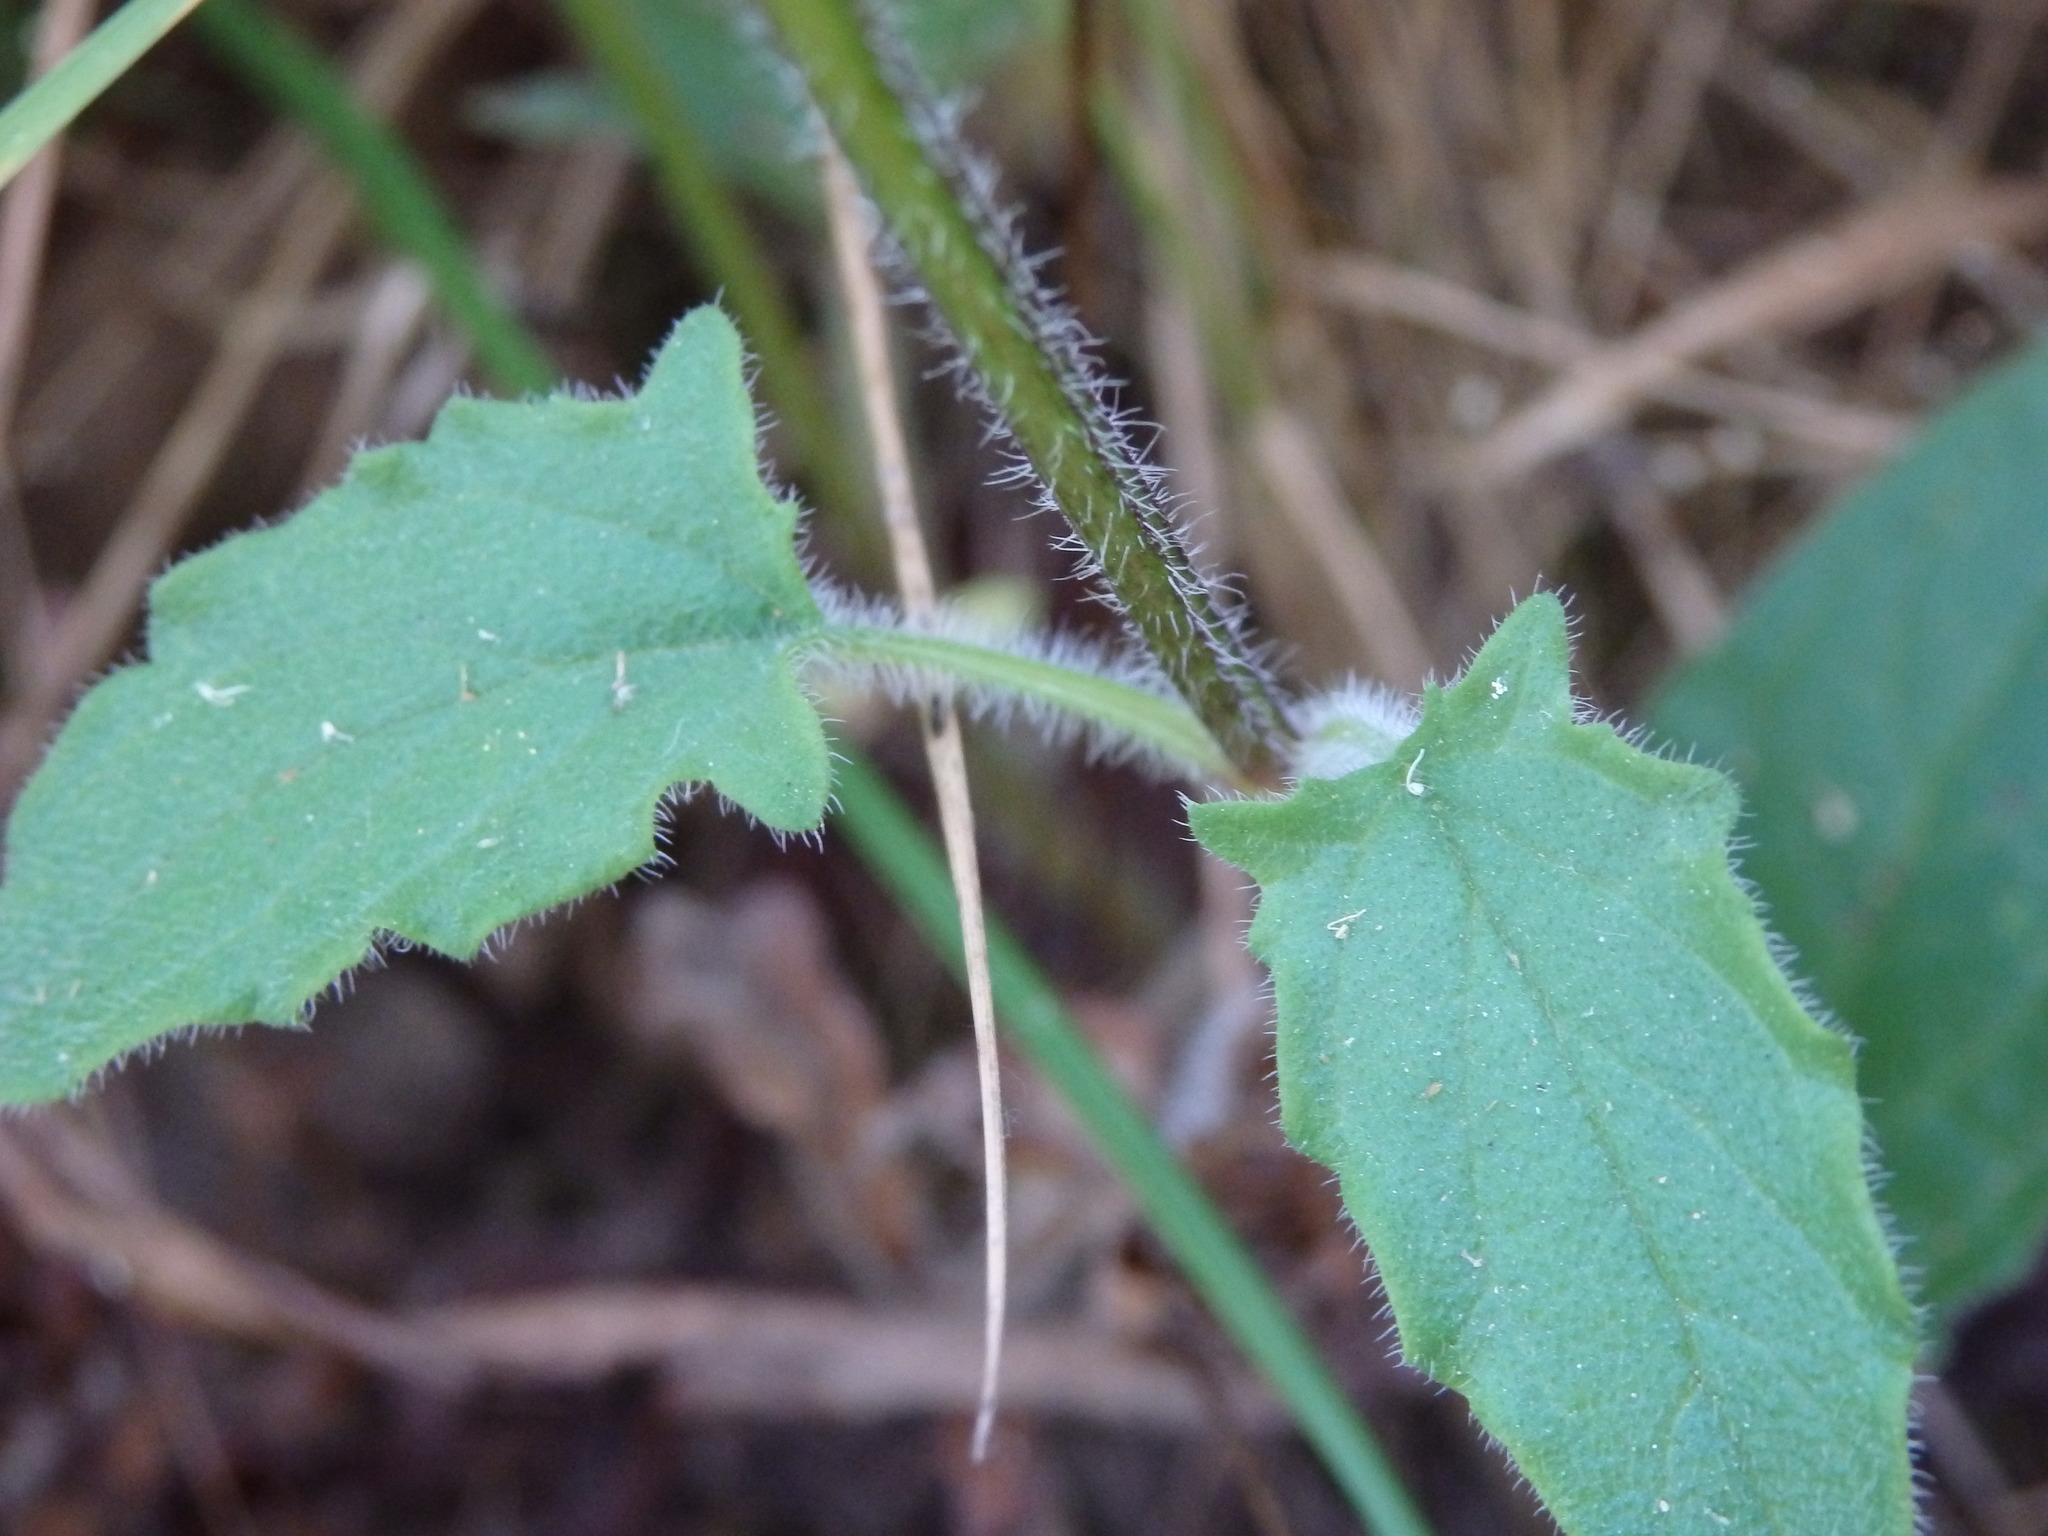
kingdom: Plantae
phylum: Tracheophyta
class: Magnoliopsida
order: Lamiales
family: Lamiaceae
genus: Prunella
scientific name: Prunella grandiflora
